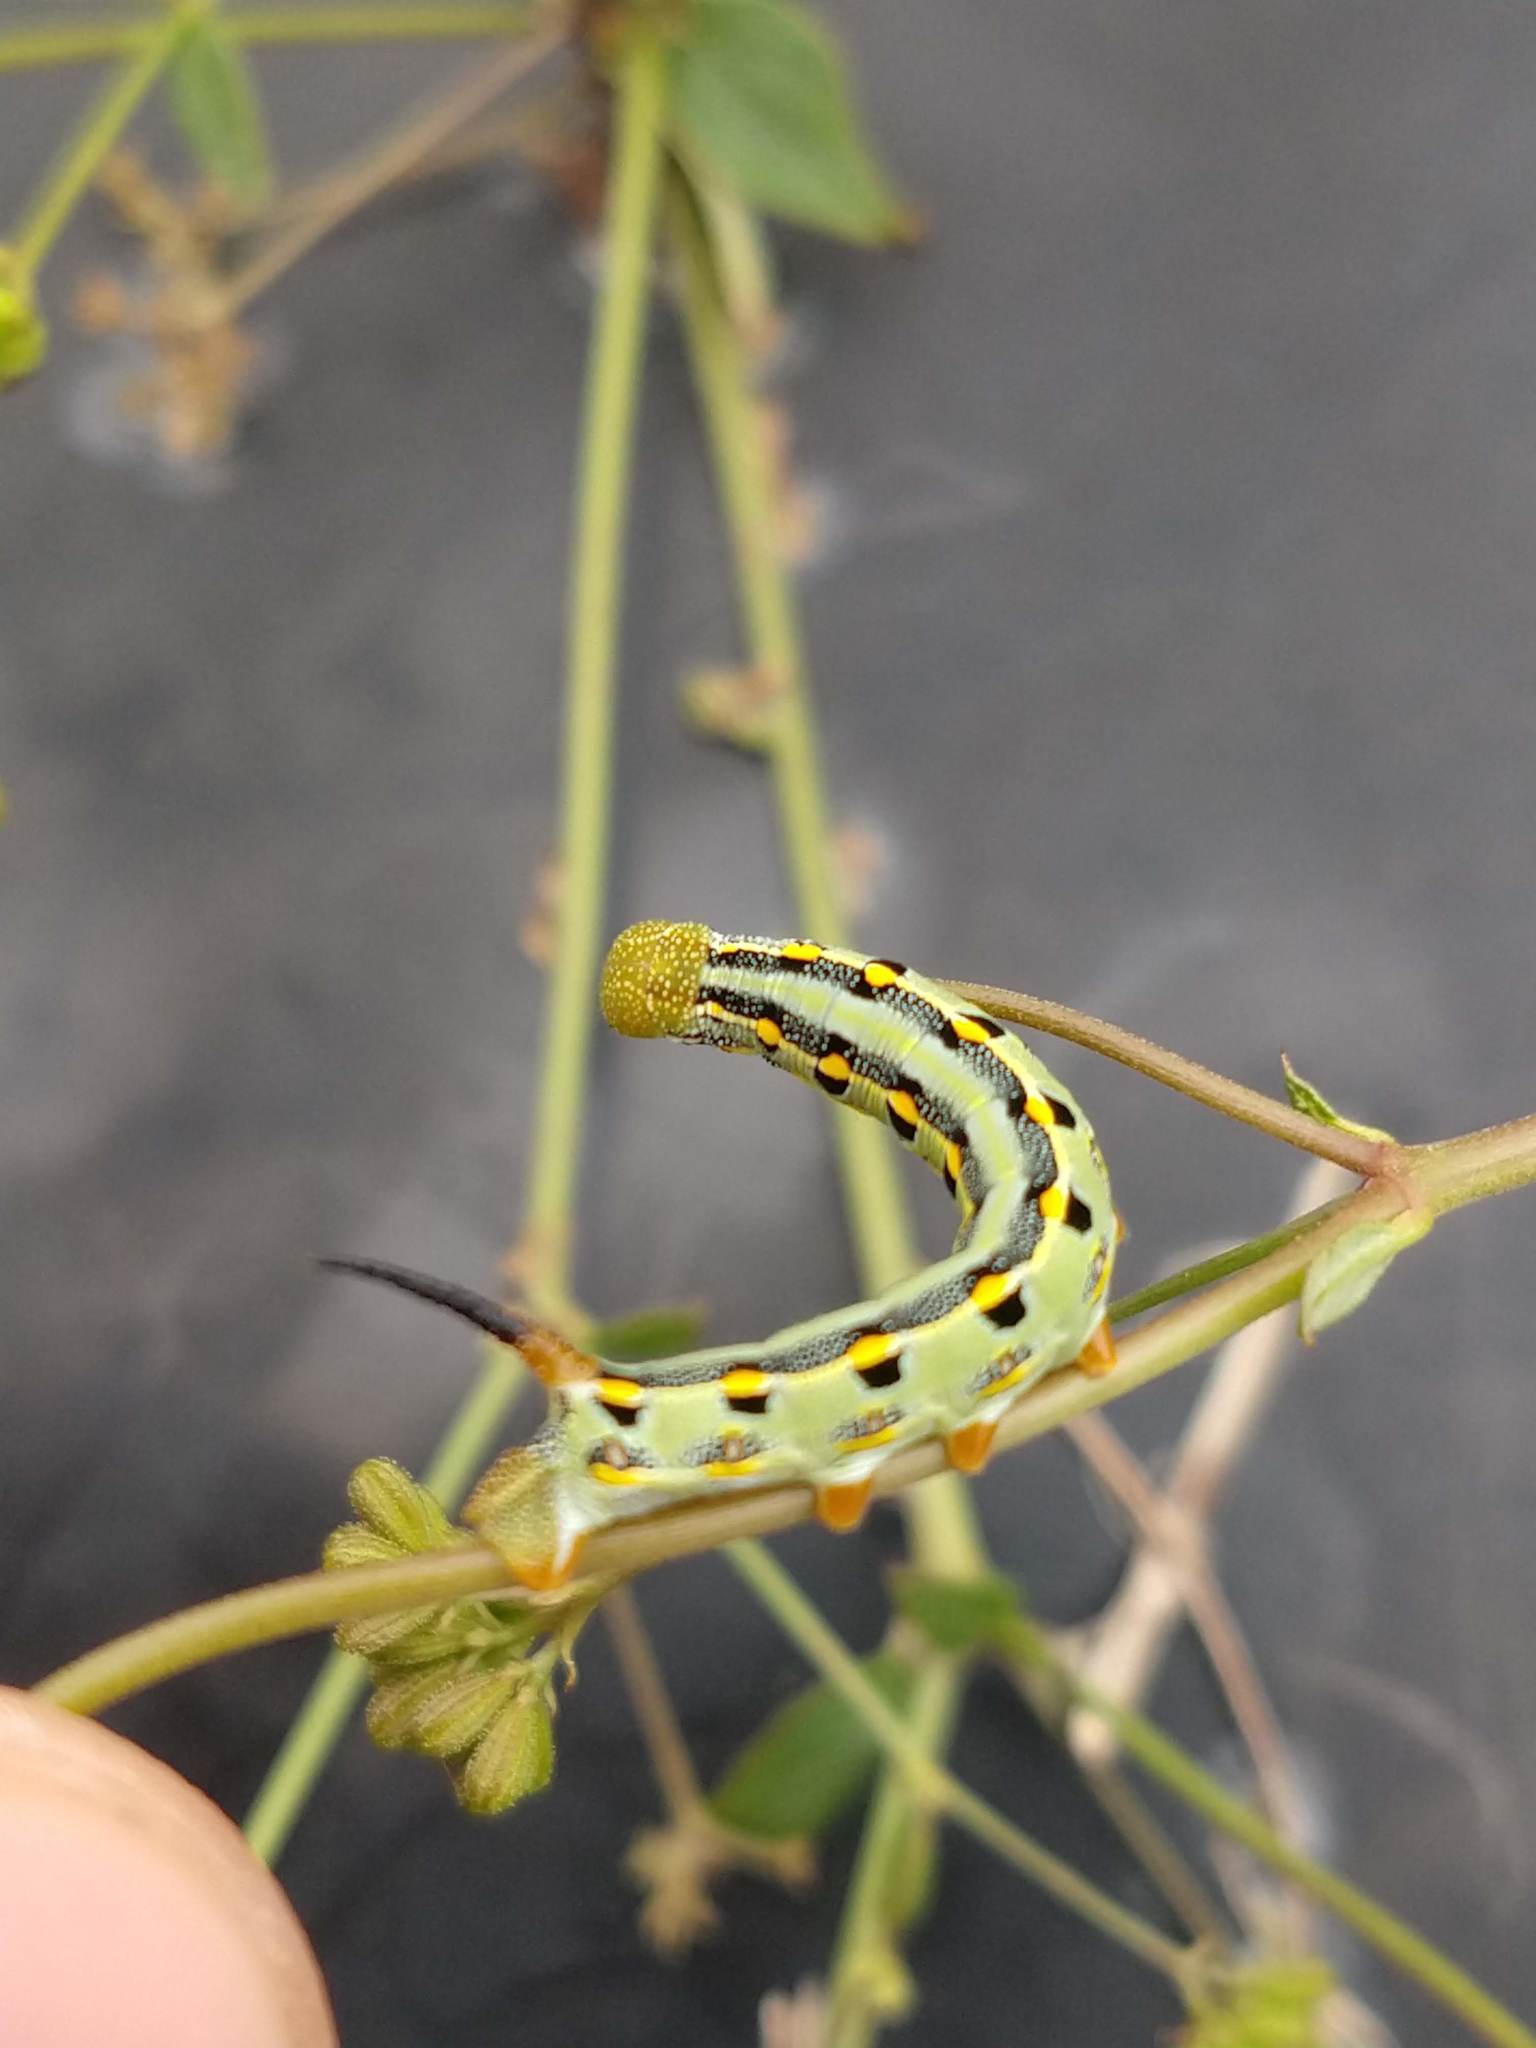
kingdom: Animalia
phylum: Arthropoda
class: Insecta
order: Lepidoptera
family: Sphingidae
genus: Hyles
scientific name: Hyles lineata
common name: White-lined sphinx
